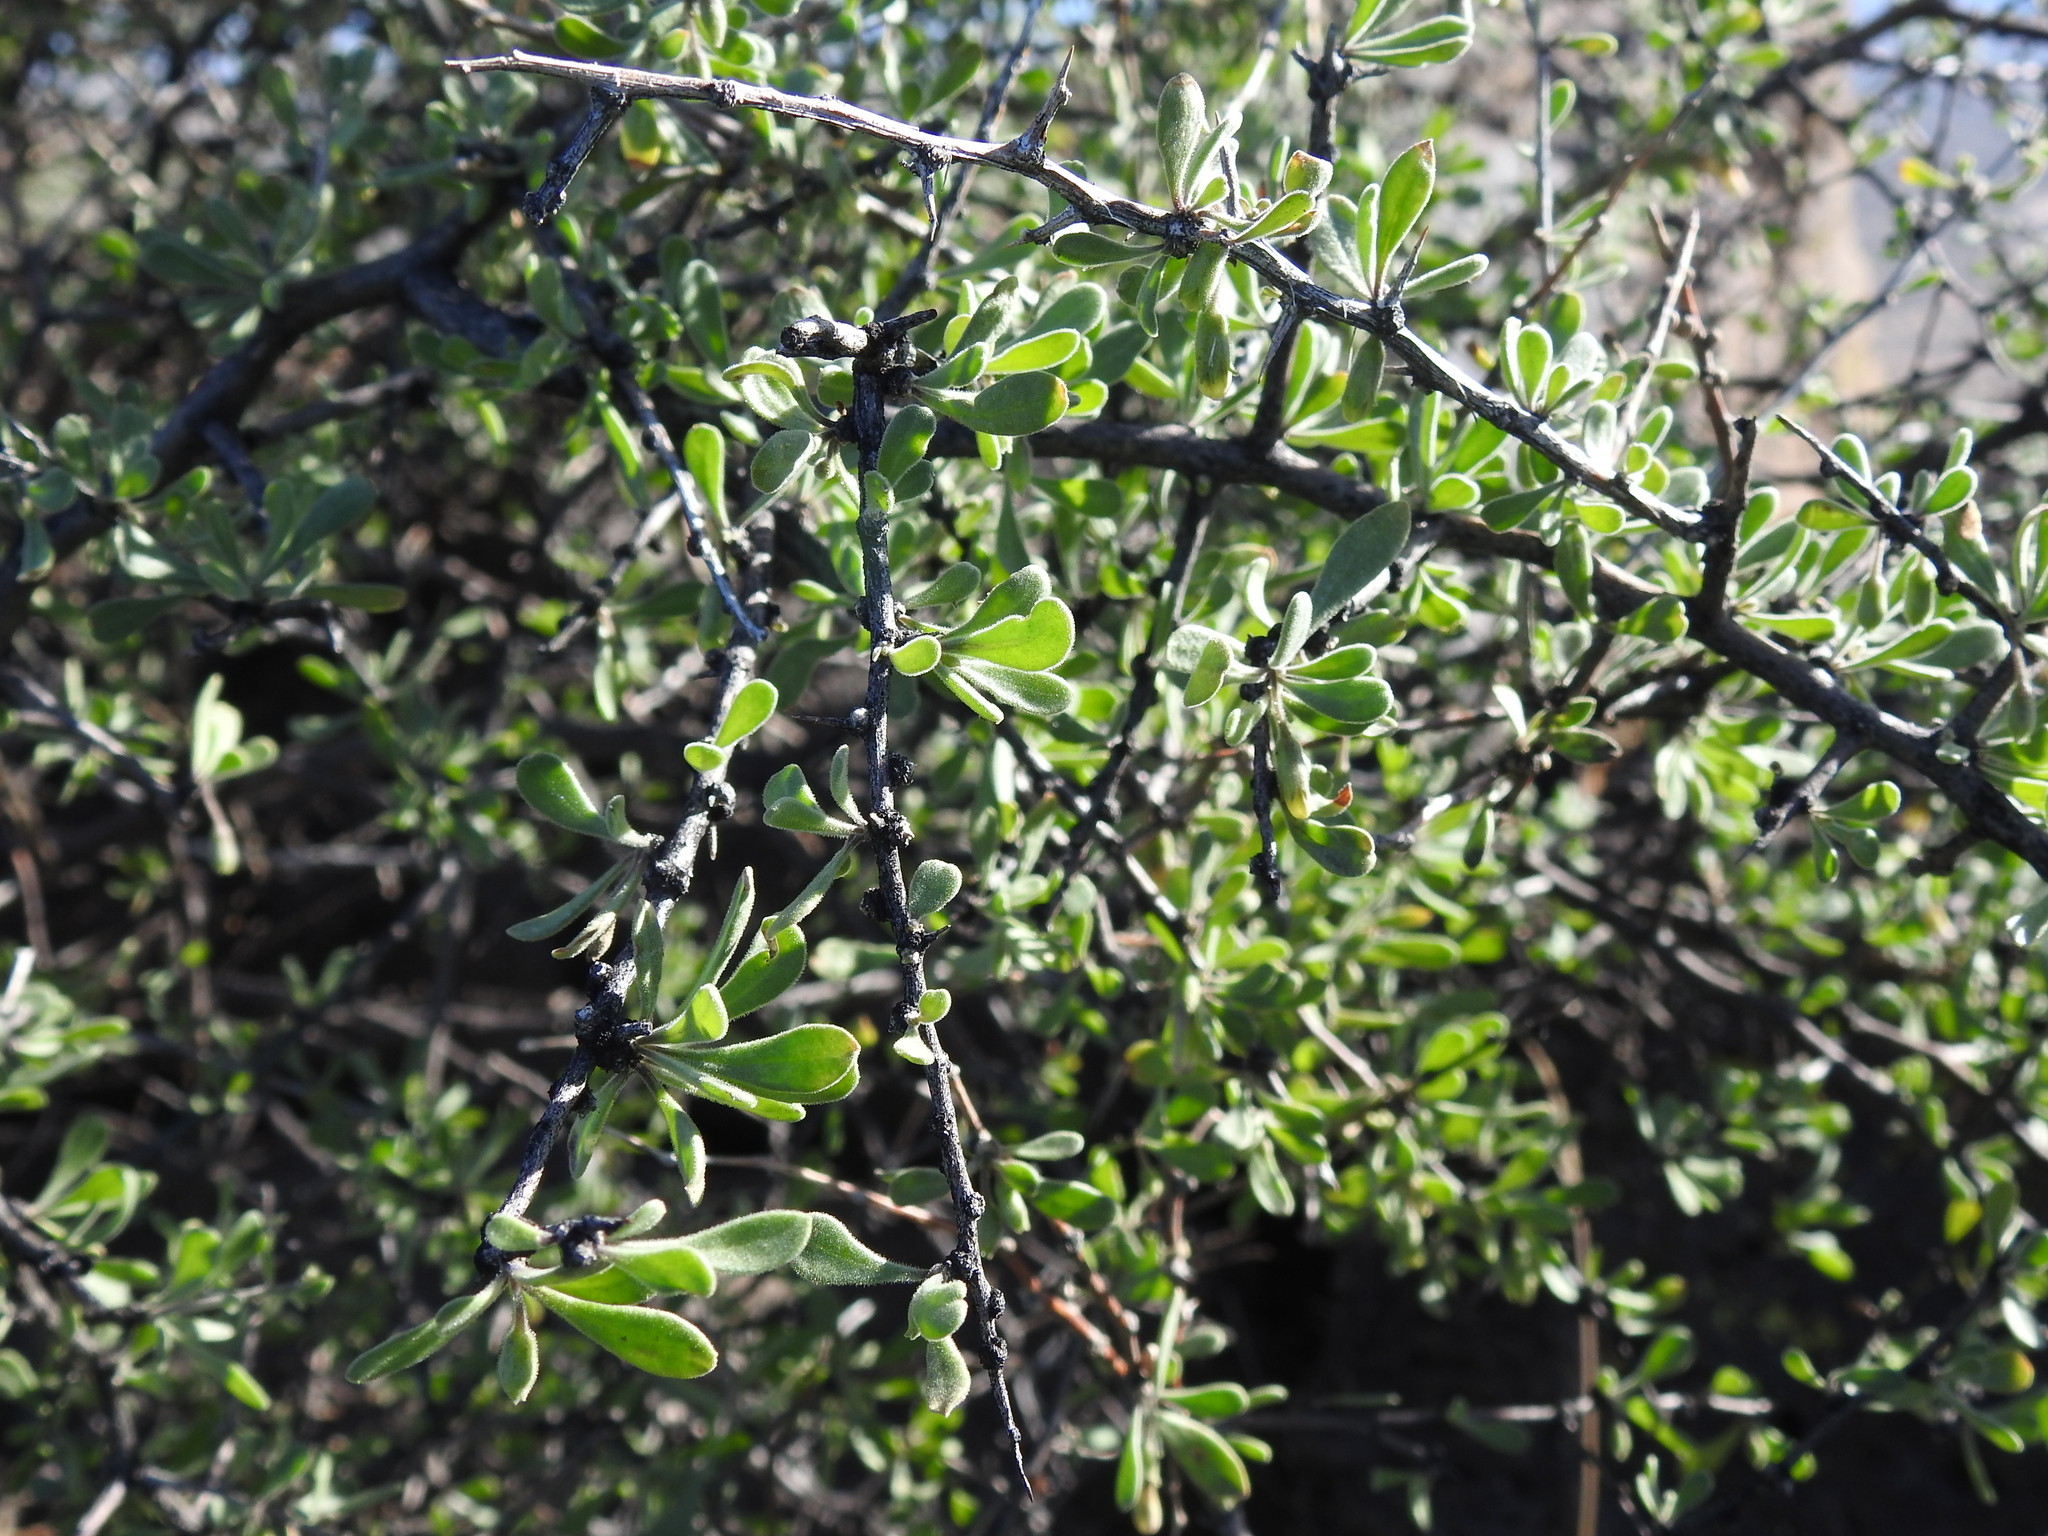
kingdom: Plantae
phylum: Tracheophyta
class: Magnoliopsida
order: Solanales
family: Solanaceae
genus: Lycium
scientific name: Lycium exsertum
